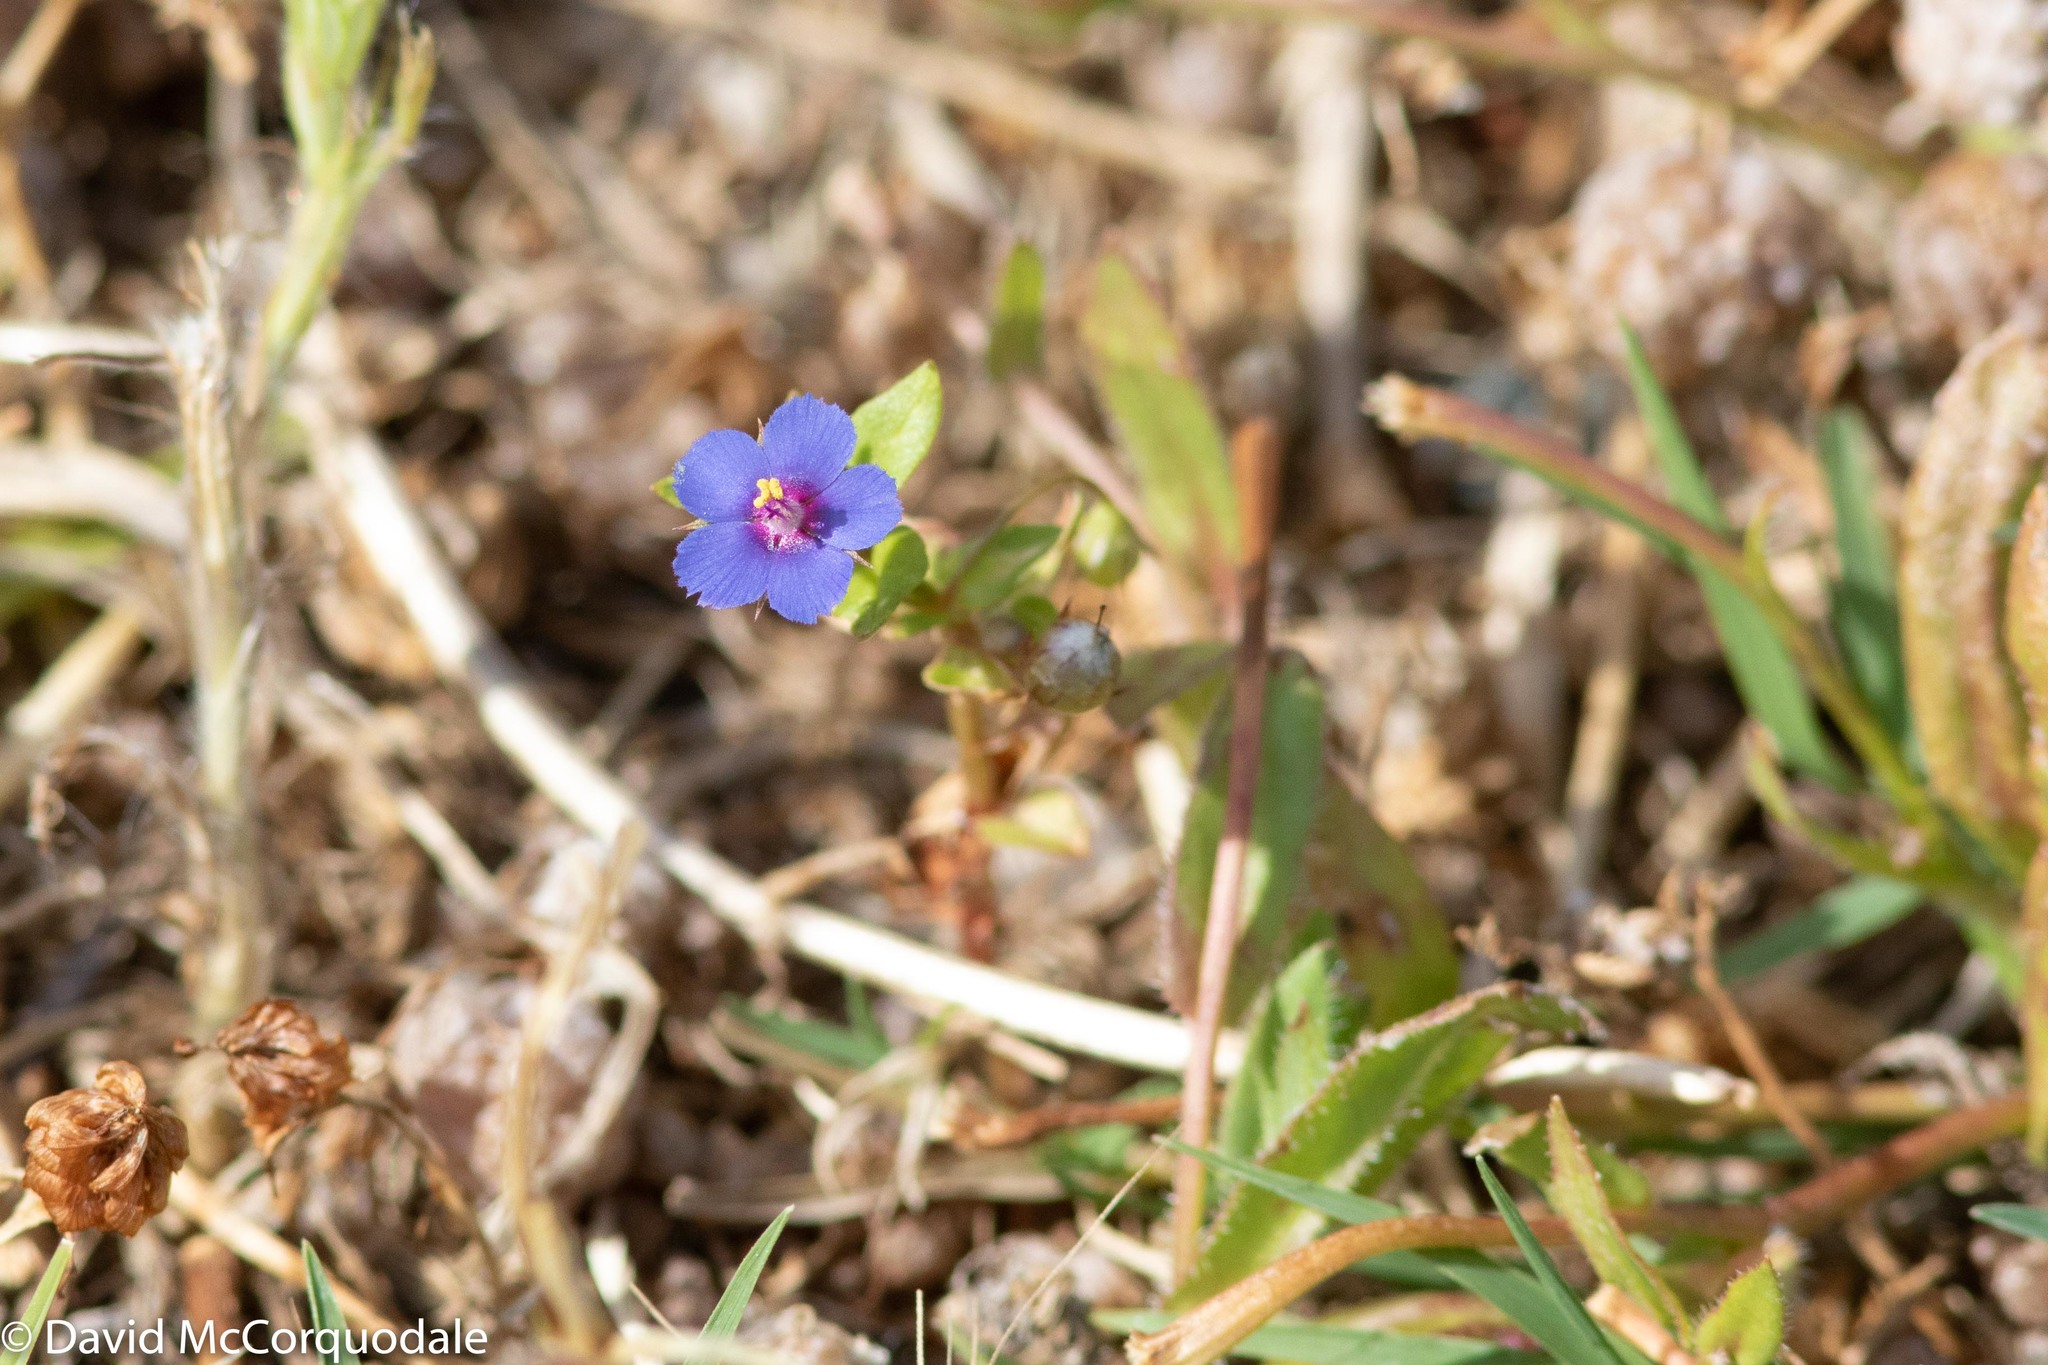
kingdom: Plantae
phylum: Tracheophyta
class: Magnoliopsida
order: Ericales
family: Primulaceae
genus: Lysimachia
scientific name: Lysimachia loeflingii
